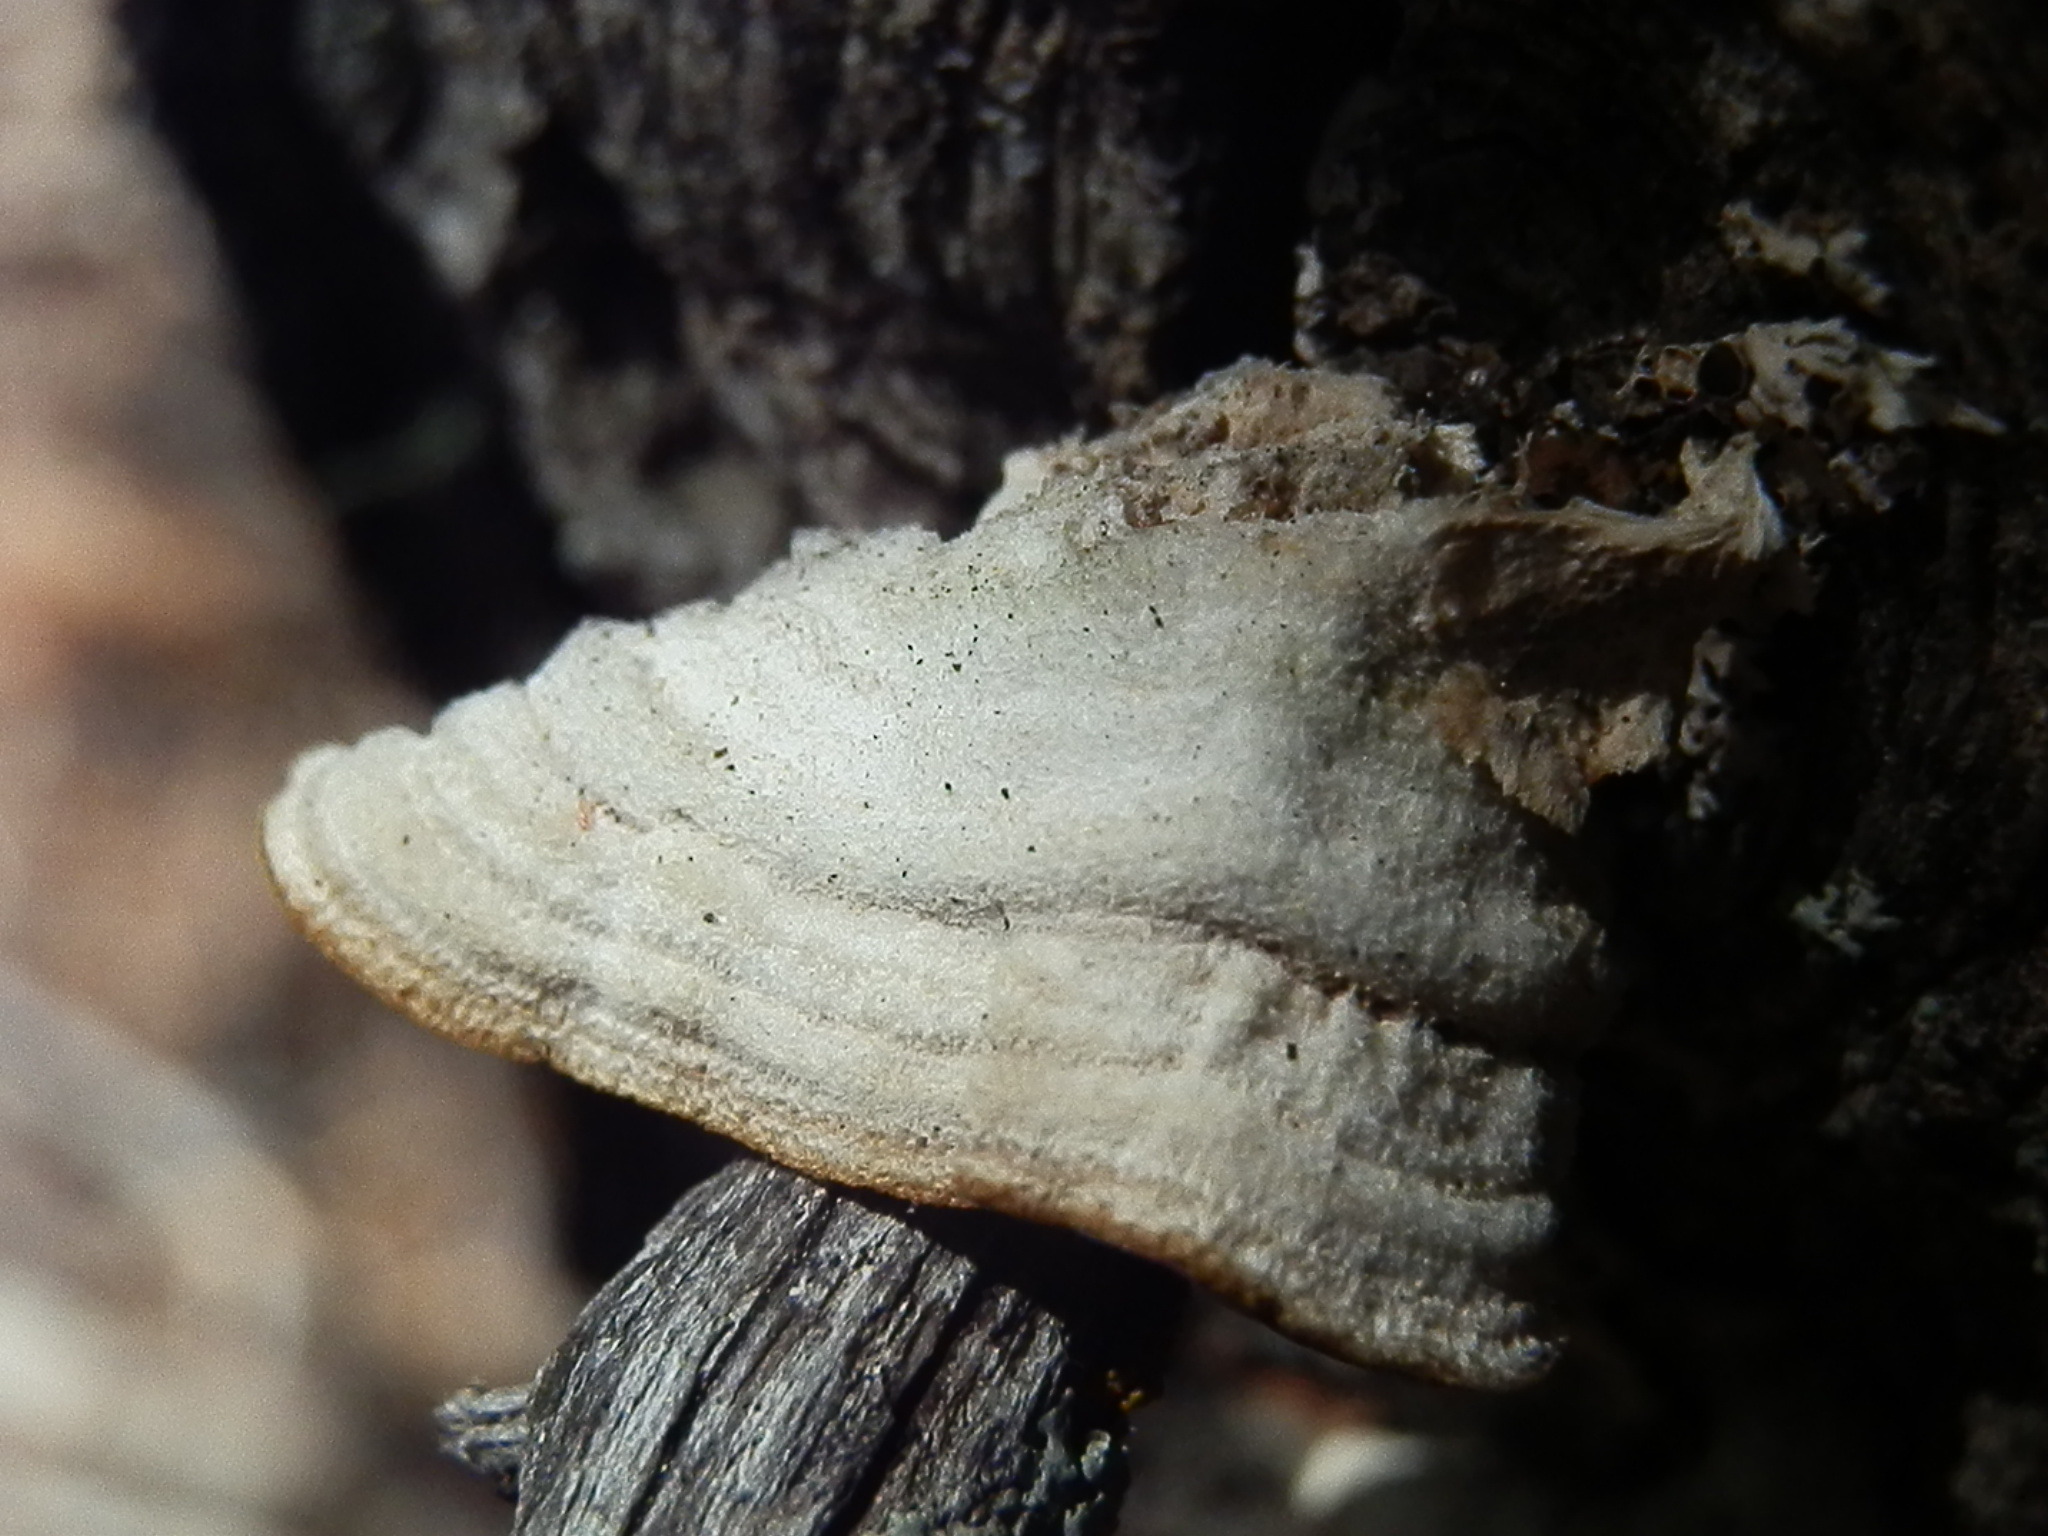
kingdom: Fungi
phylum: Basidiomycota
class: Agaricomycetes
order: Hymenochaetales
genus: Trichaptum
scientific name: Trichaptum abietinum
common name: Purplepore bracket
